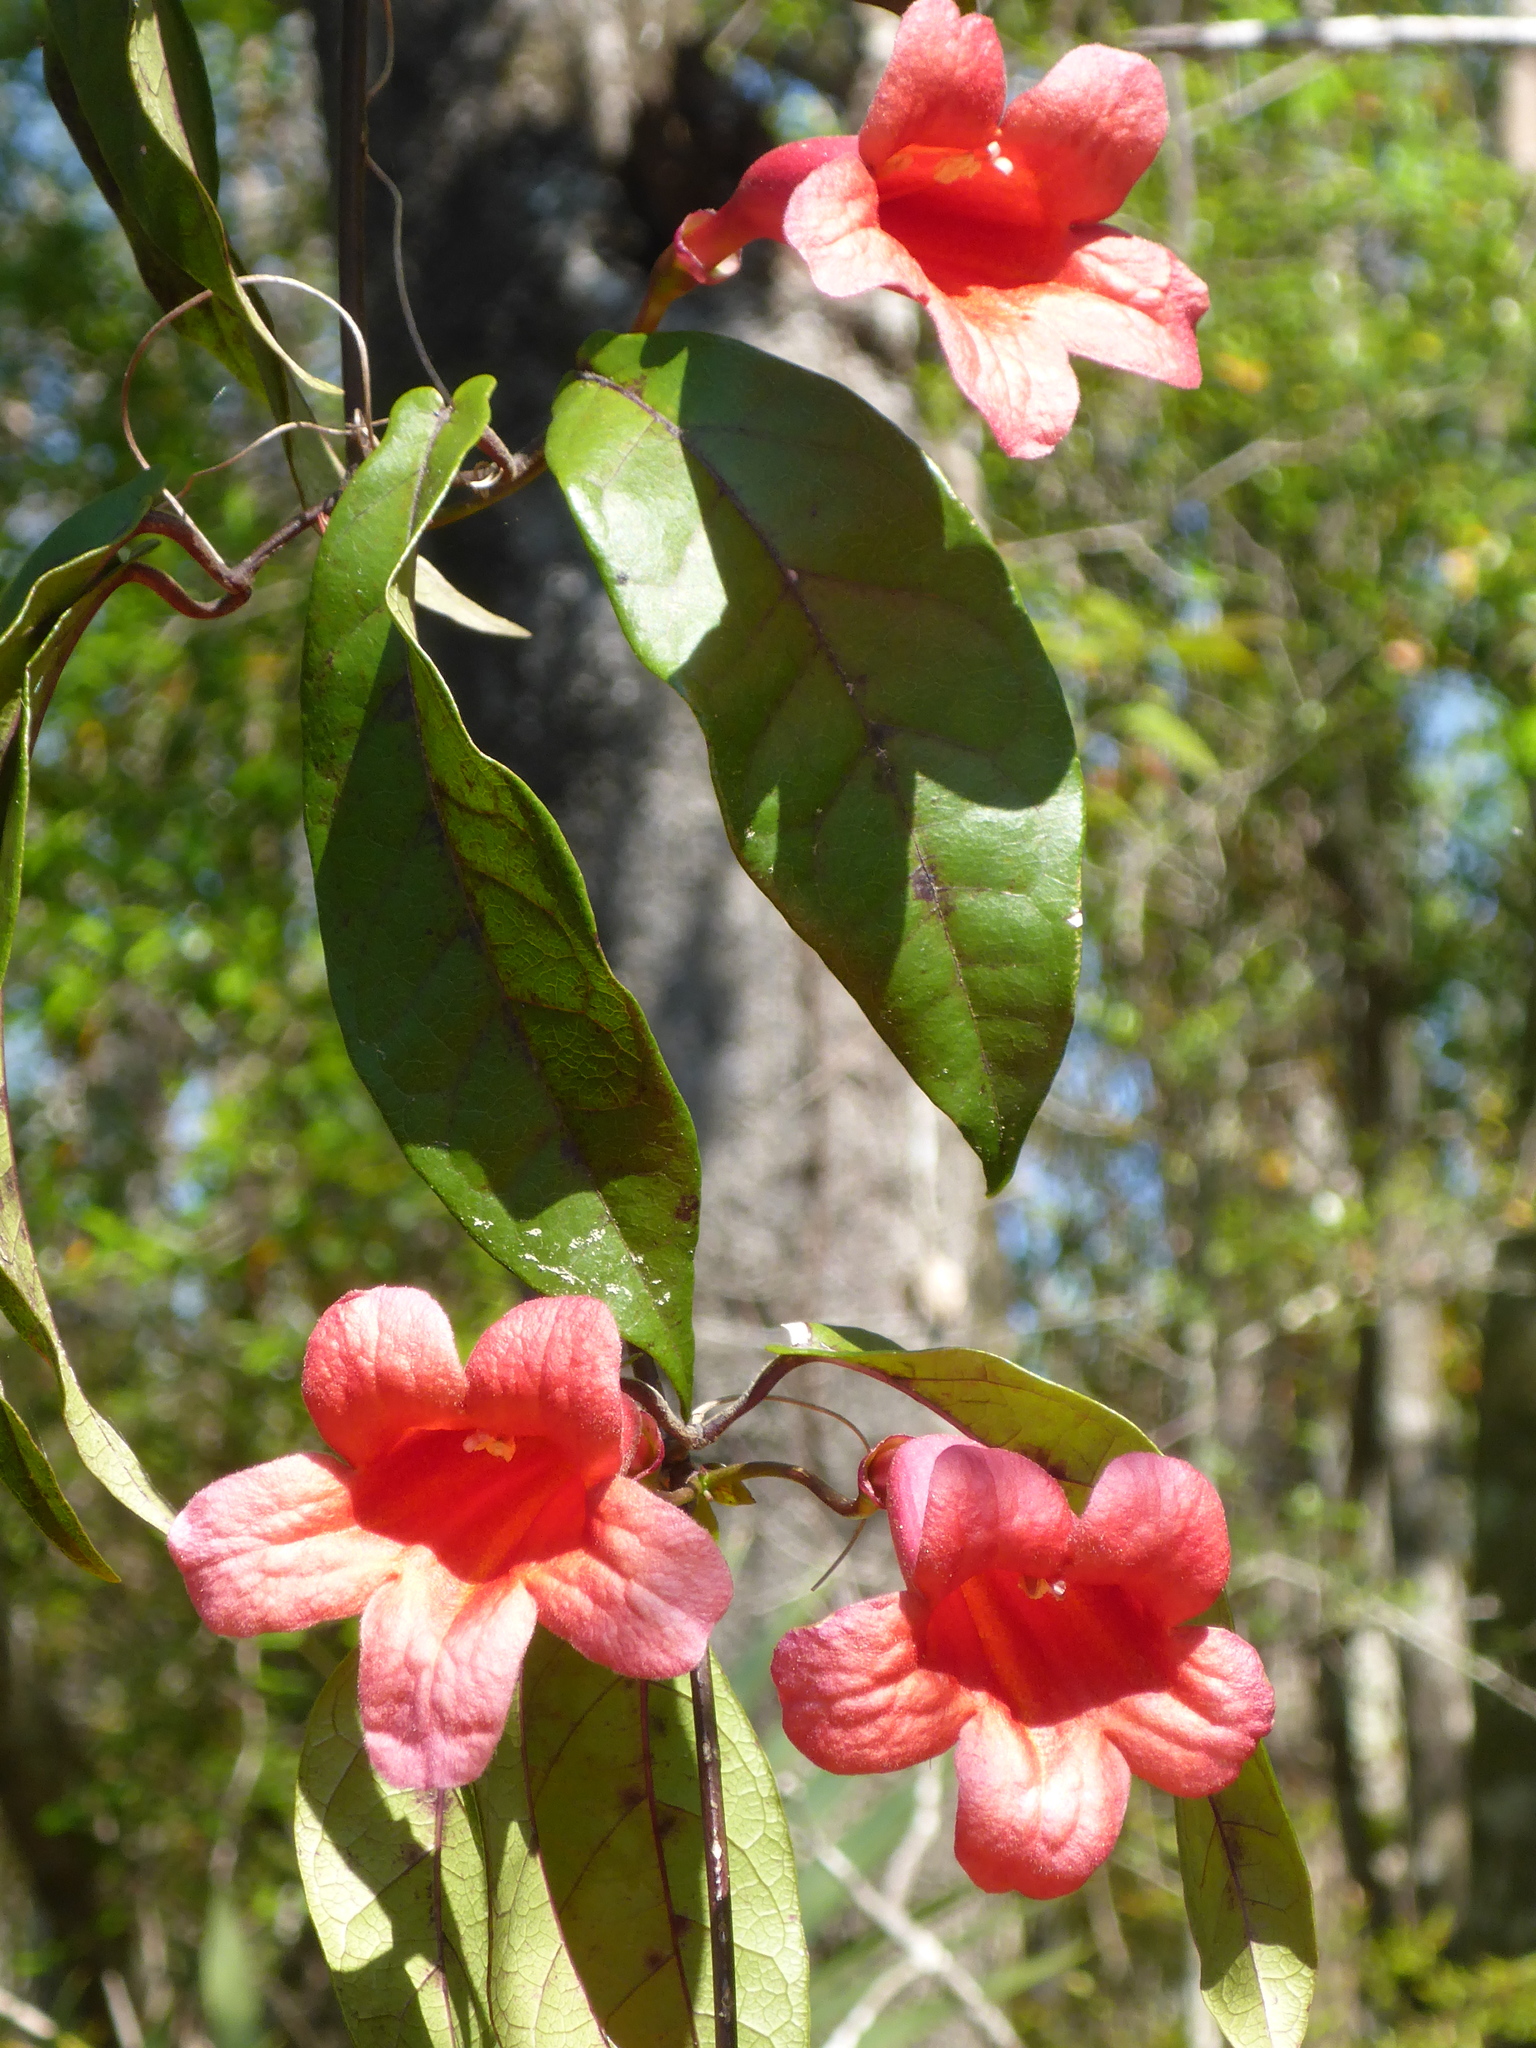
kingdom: Plantae
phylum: Tracheophyta
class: Magnoliopsida
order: Lamiales
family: Bignoniaceae
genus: Bignonia
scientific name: Bignonia capreolata
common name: Crossvine
